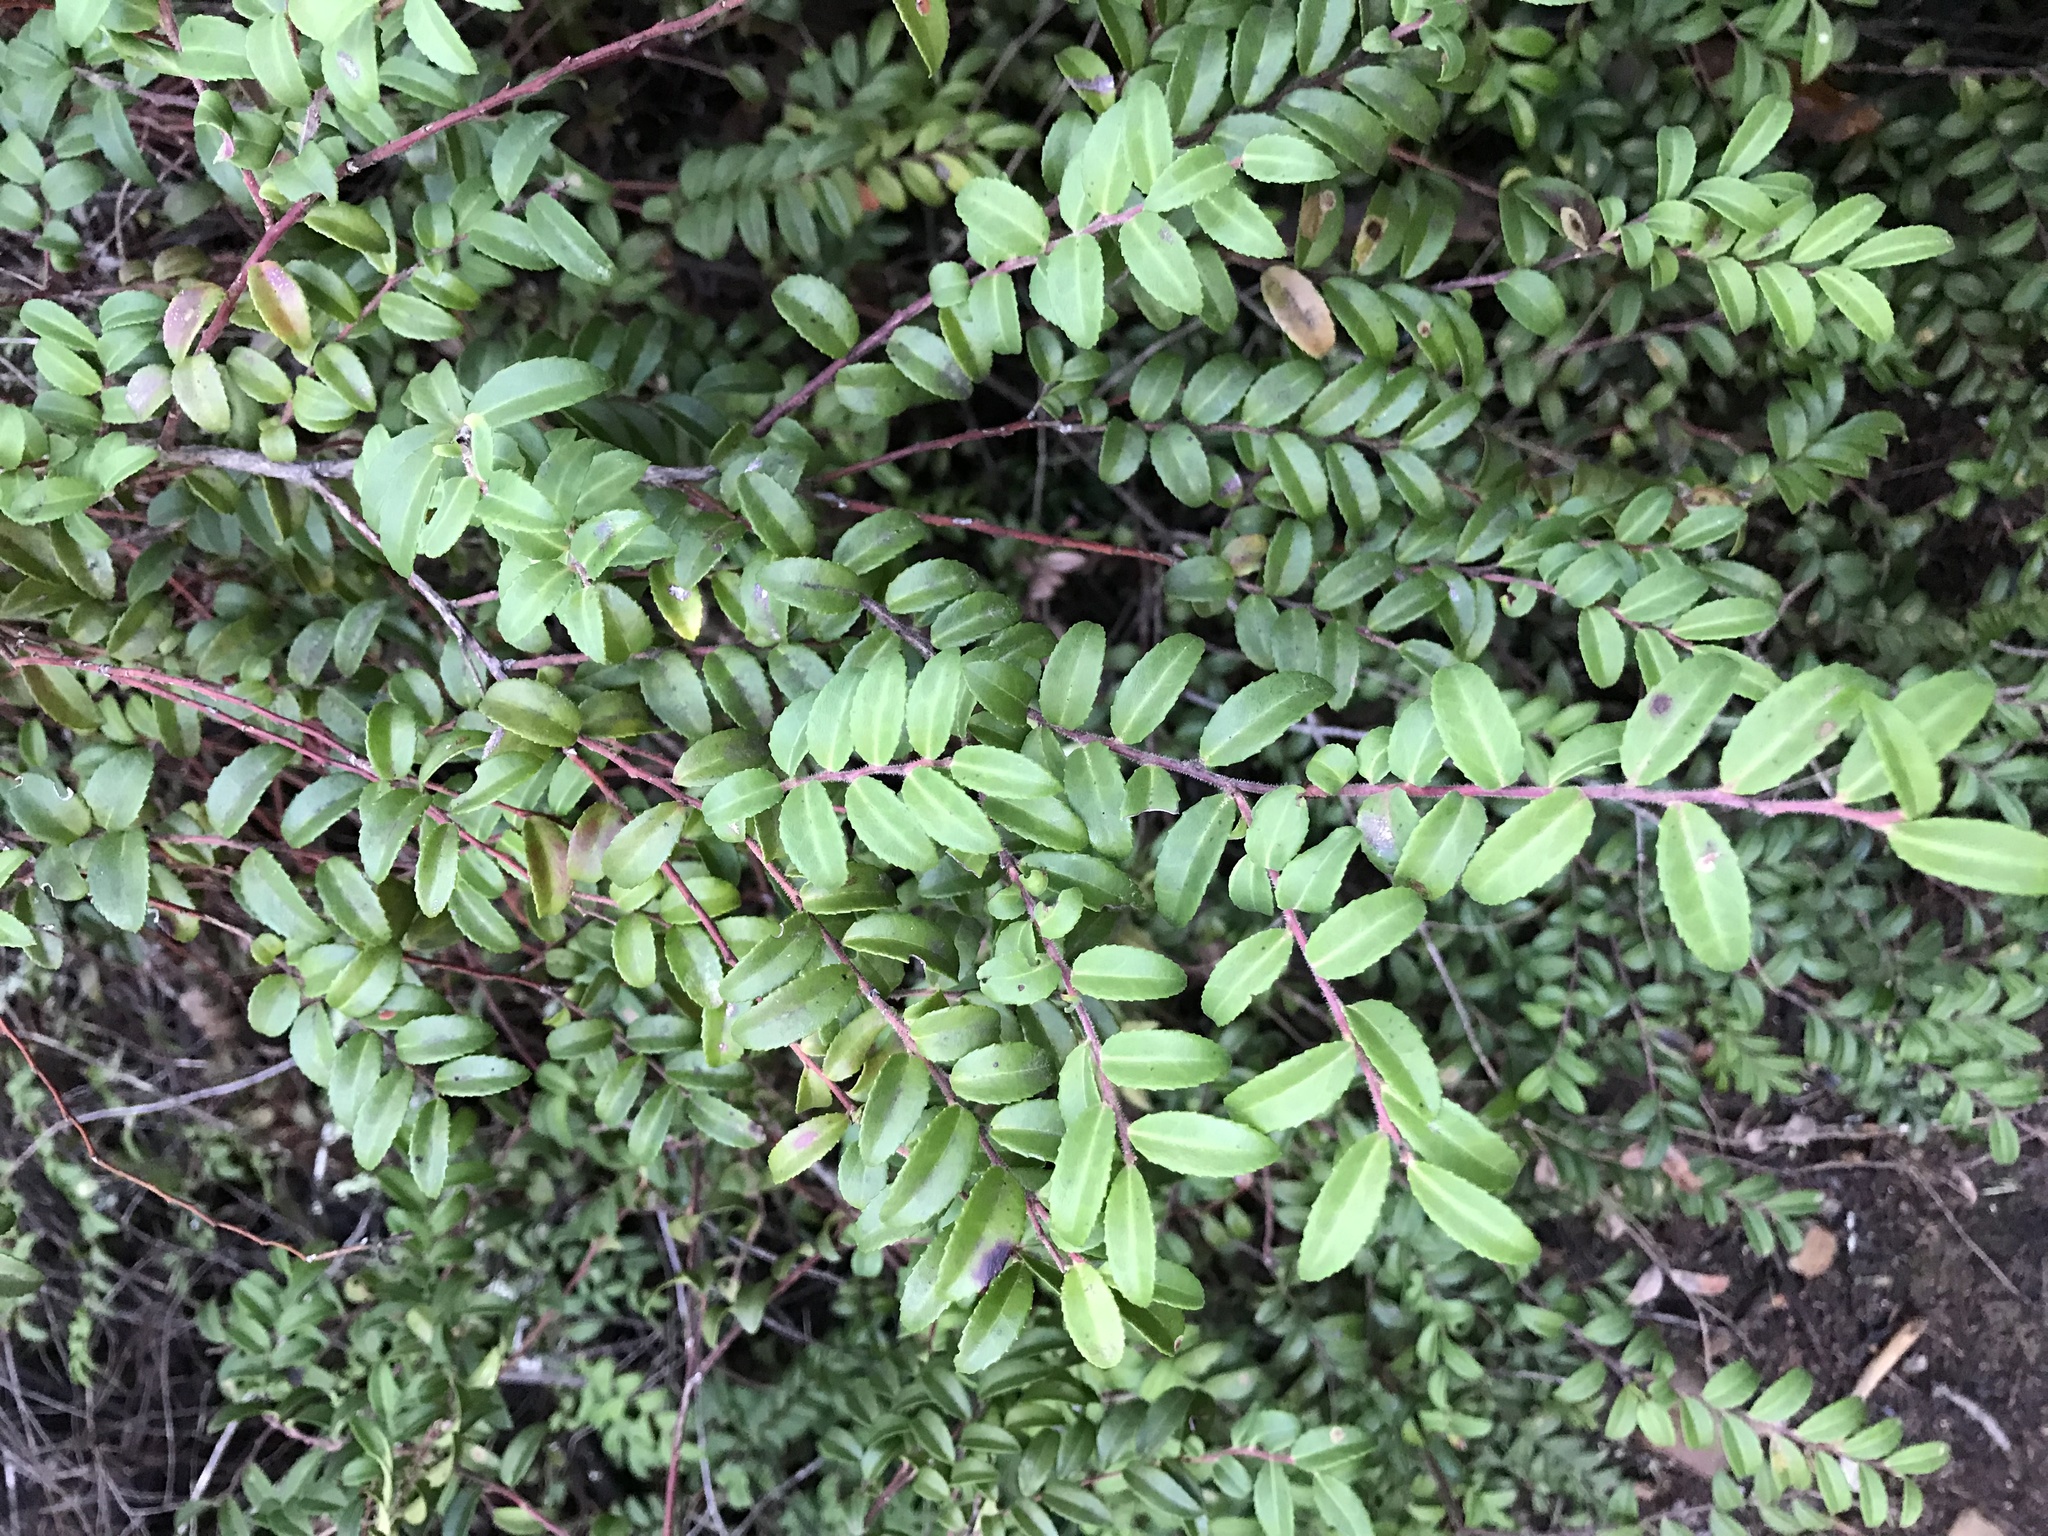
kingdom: Plantae
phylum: Tracheophyta
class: Magnoliopsida
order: Ericales
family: Ericaceae
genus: Vaccinium
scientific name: Vaccinium ovatum
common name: California-huckleberry
